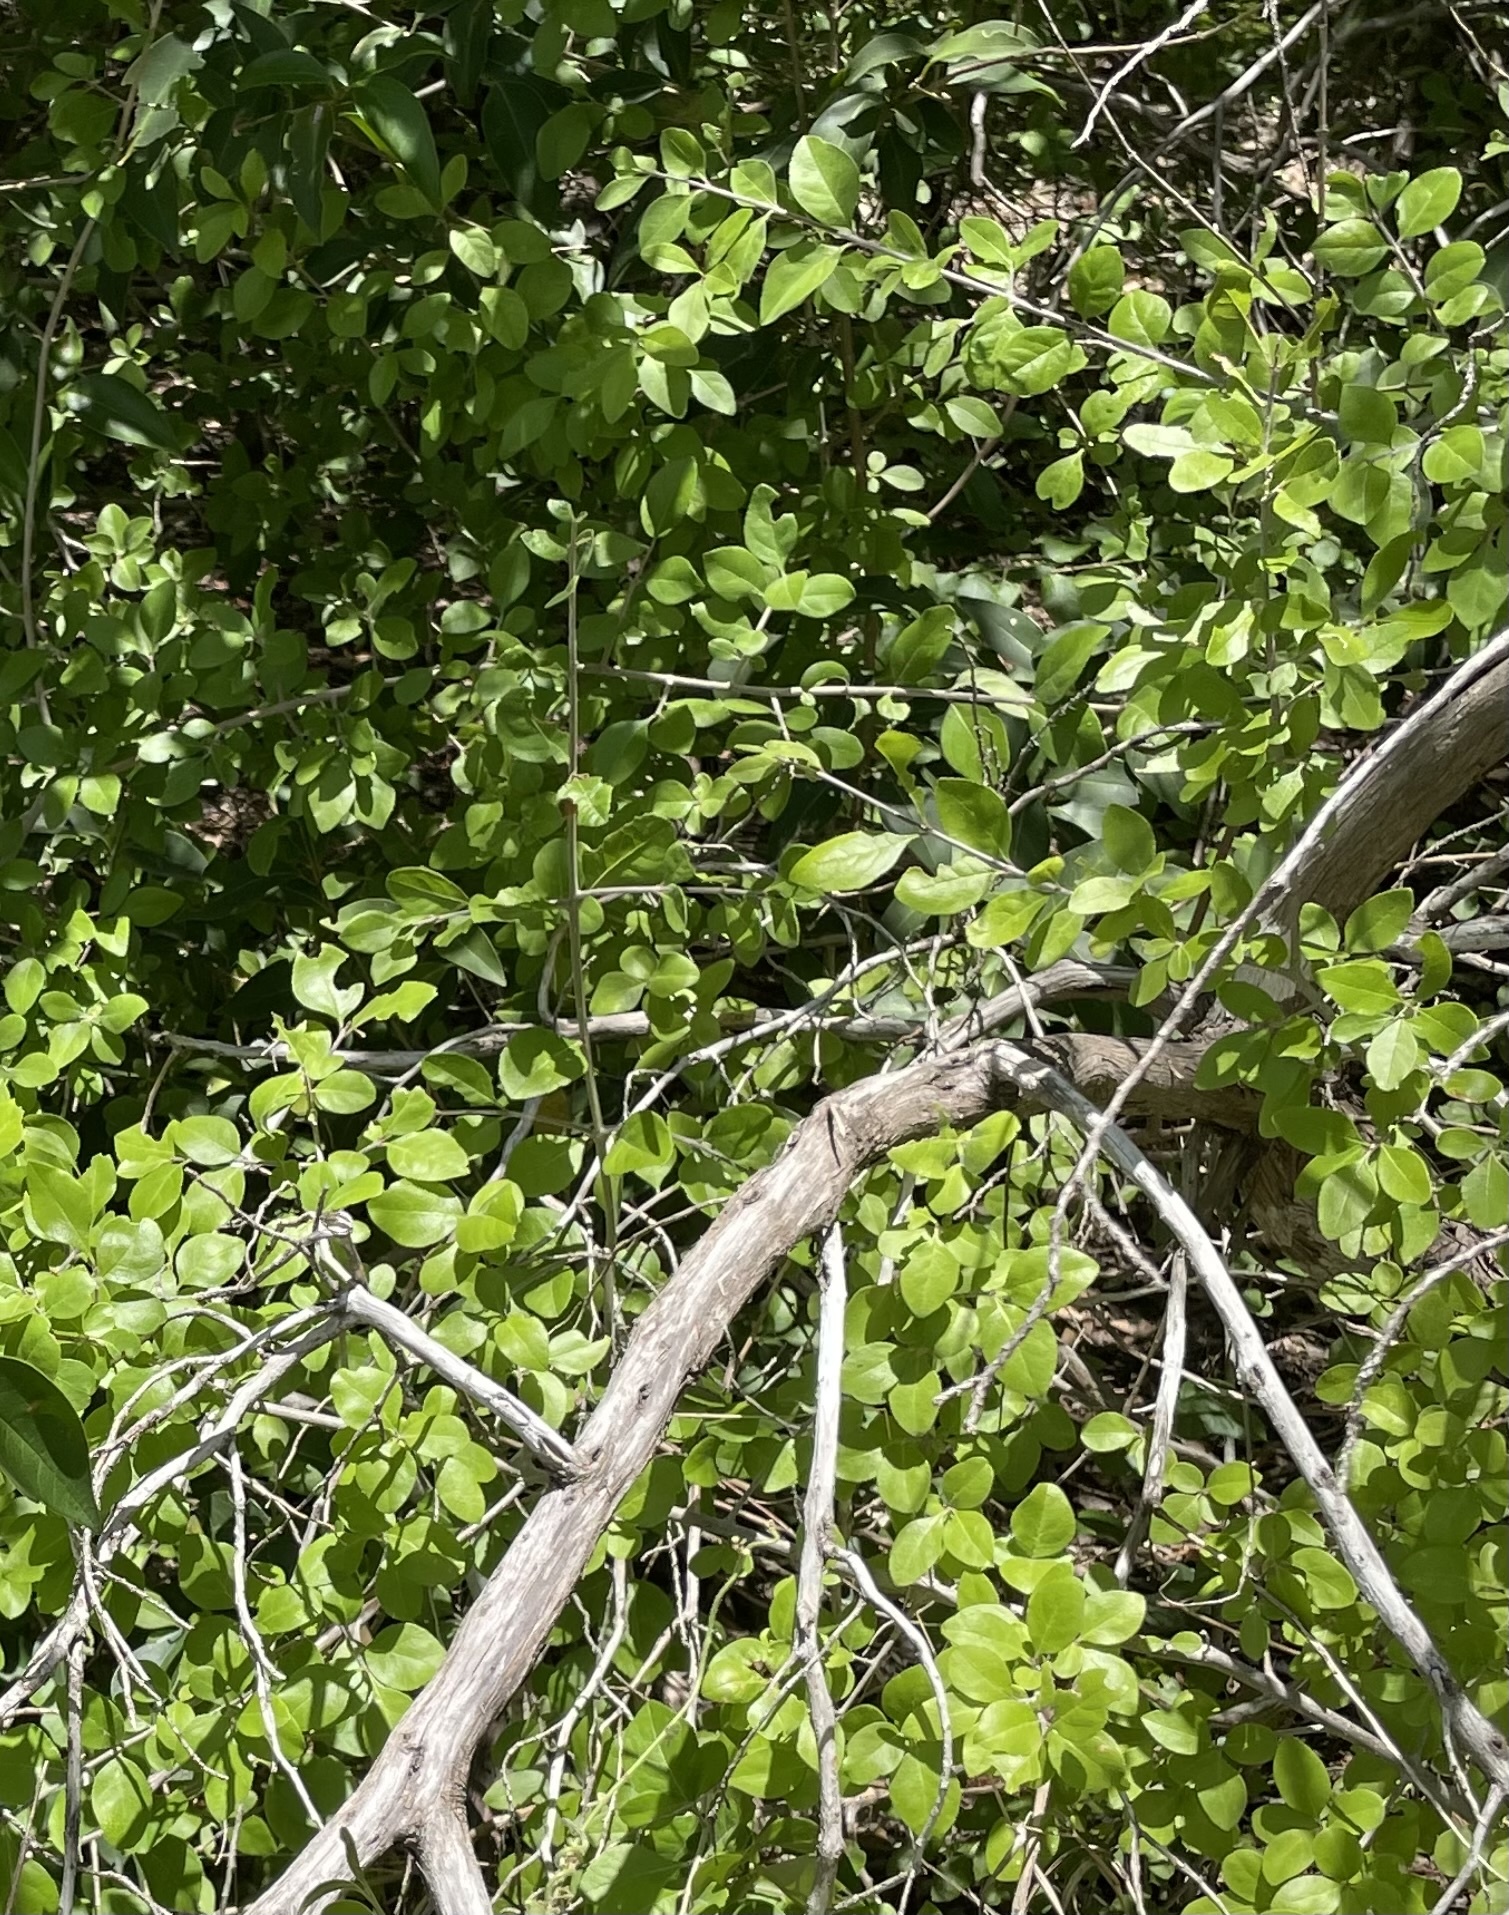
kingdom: Plantae
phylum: Tracheophyta
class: Magnoliopsida
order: Lamiales
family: Oleaceae
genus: Forestiera
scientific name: Forestiera pubescens
